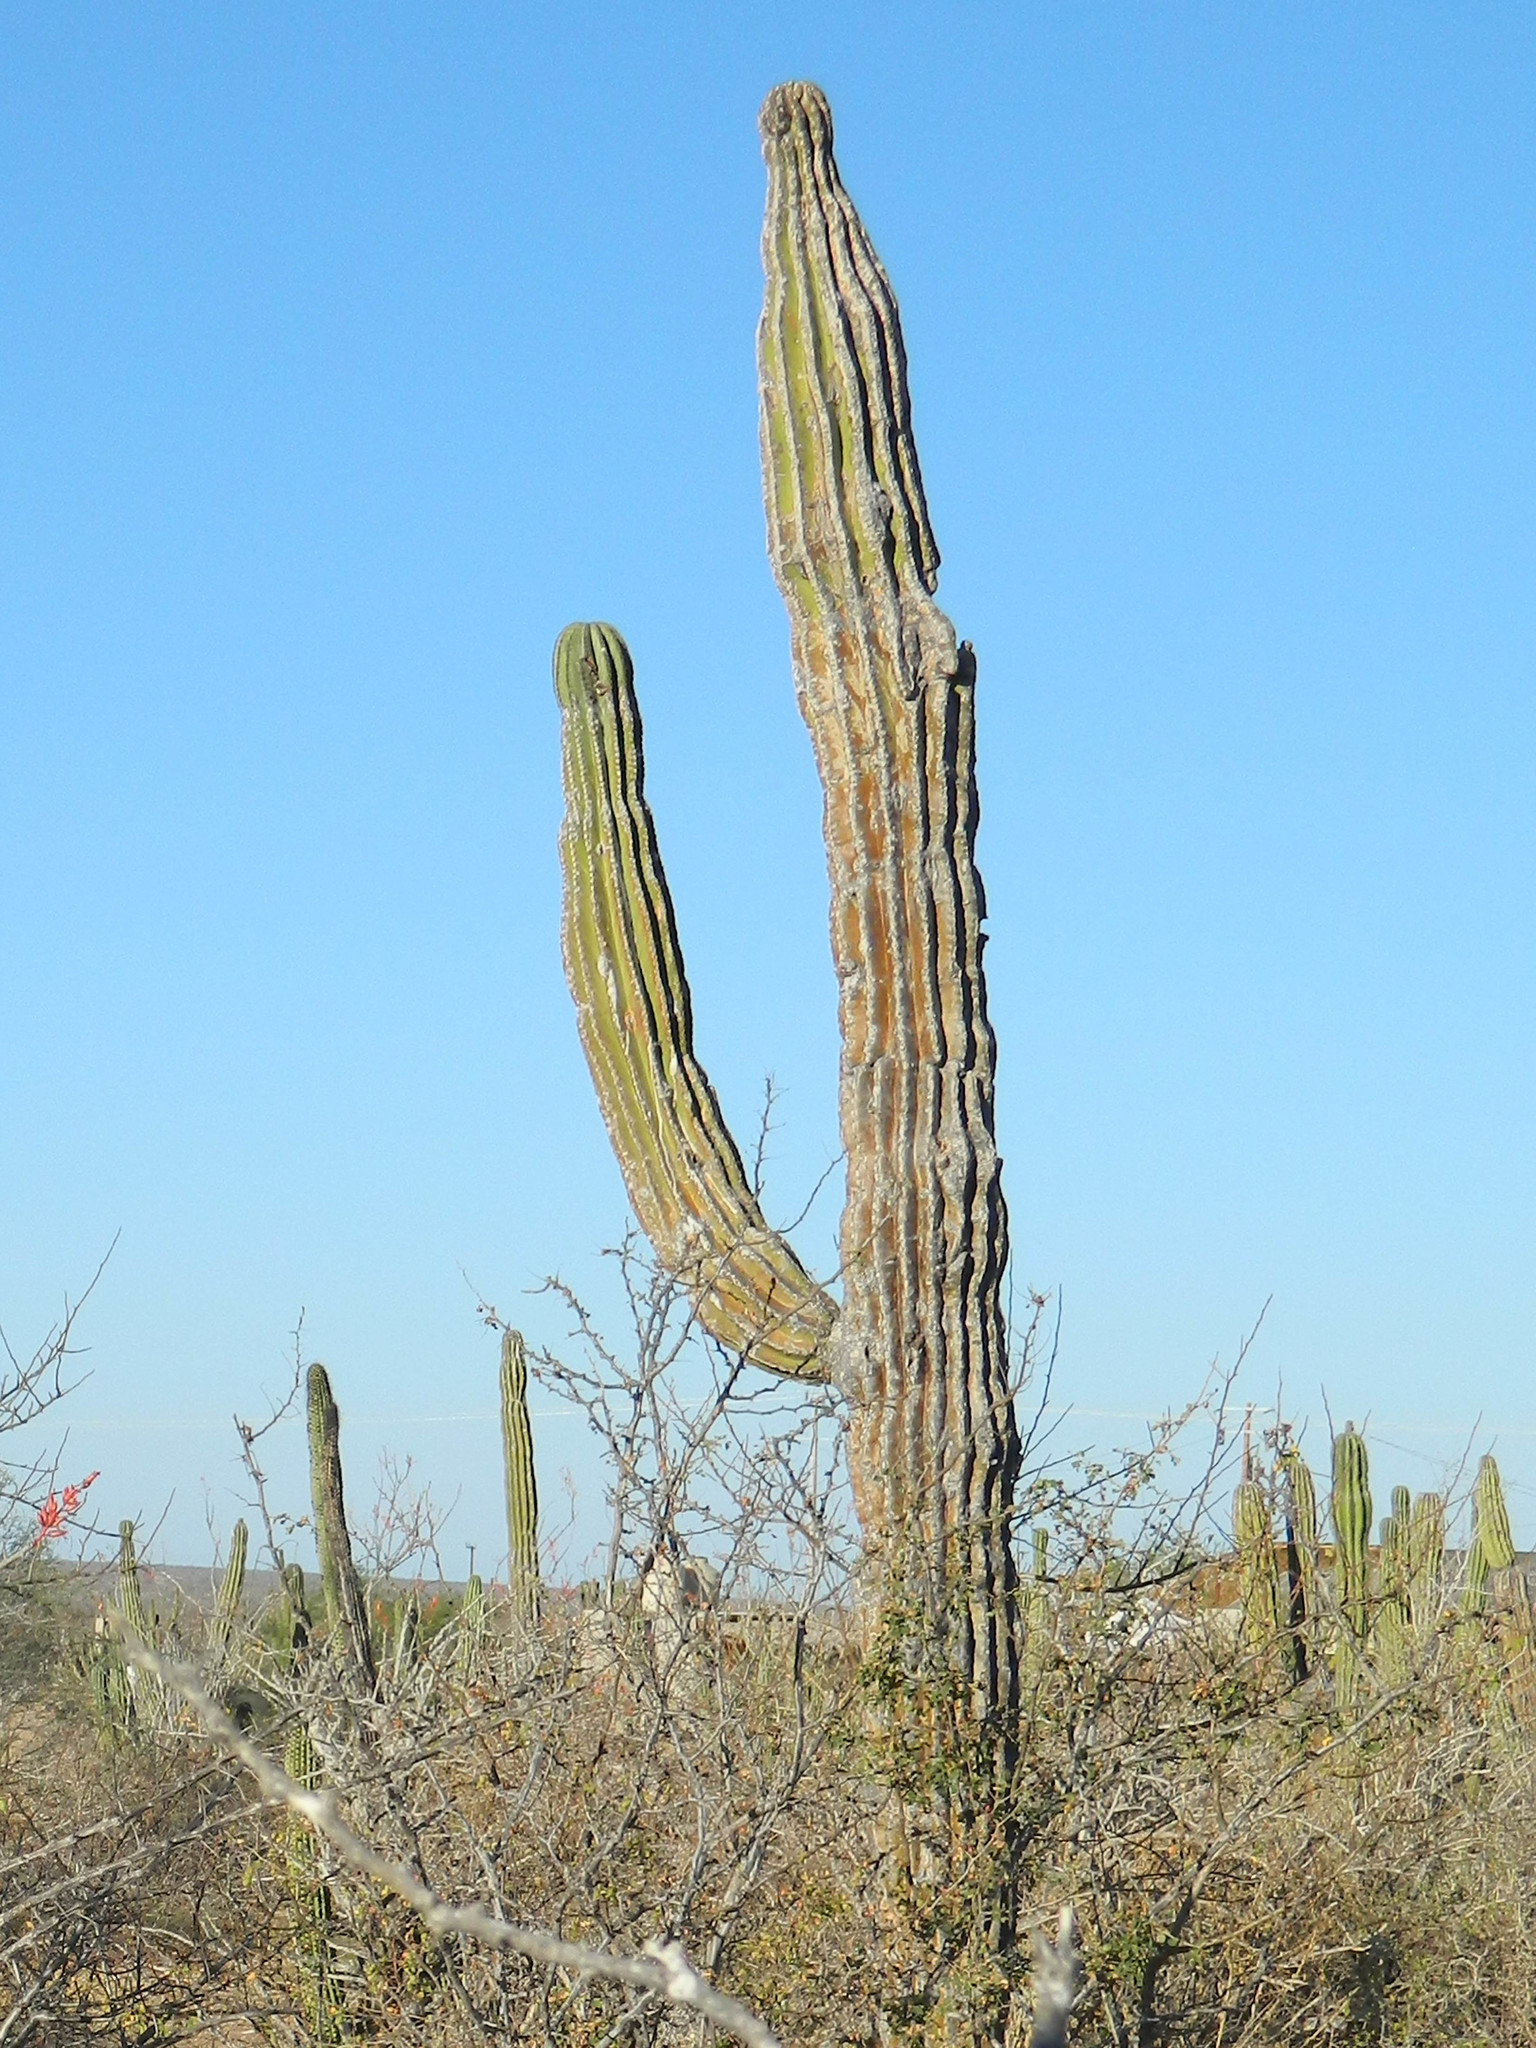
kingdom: Plantae
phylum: Tracheophyta
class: Magnoliopsida
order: Caryophyllales
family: Cactaceae
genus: Pachycereus
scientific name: Pachycereus pringlei
